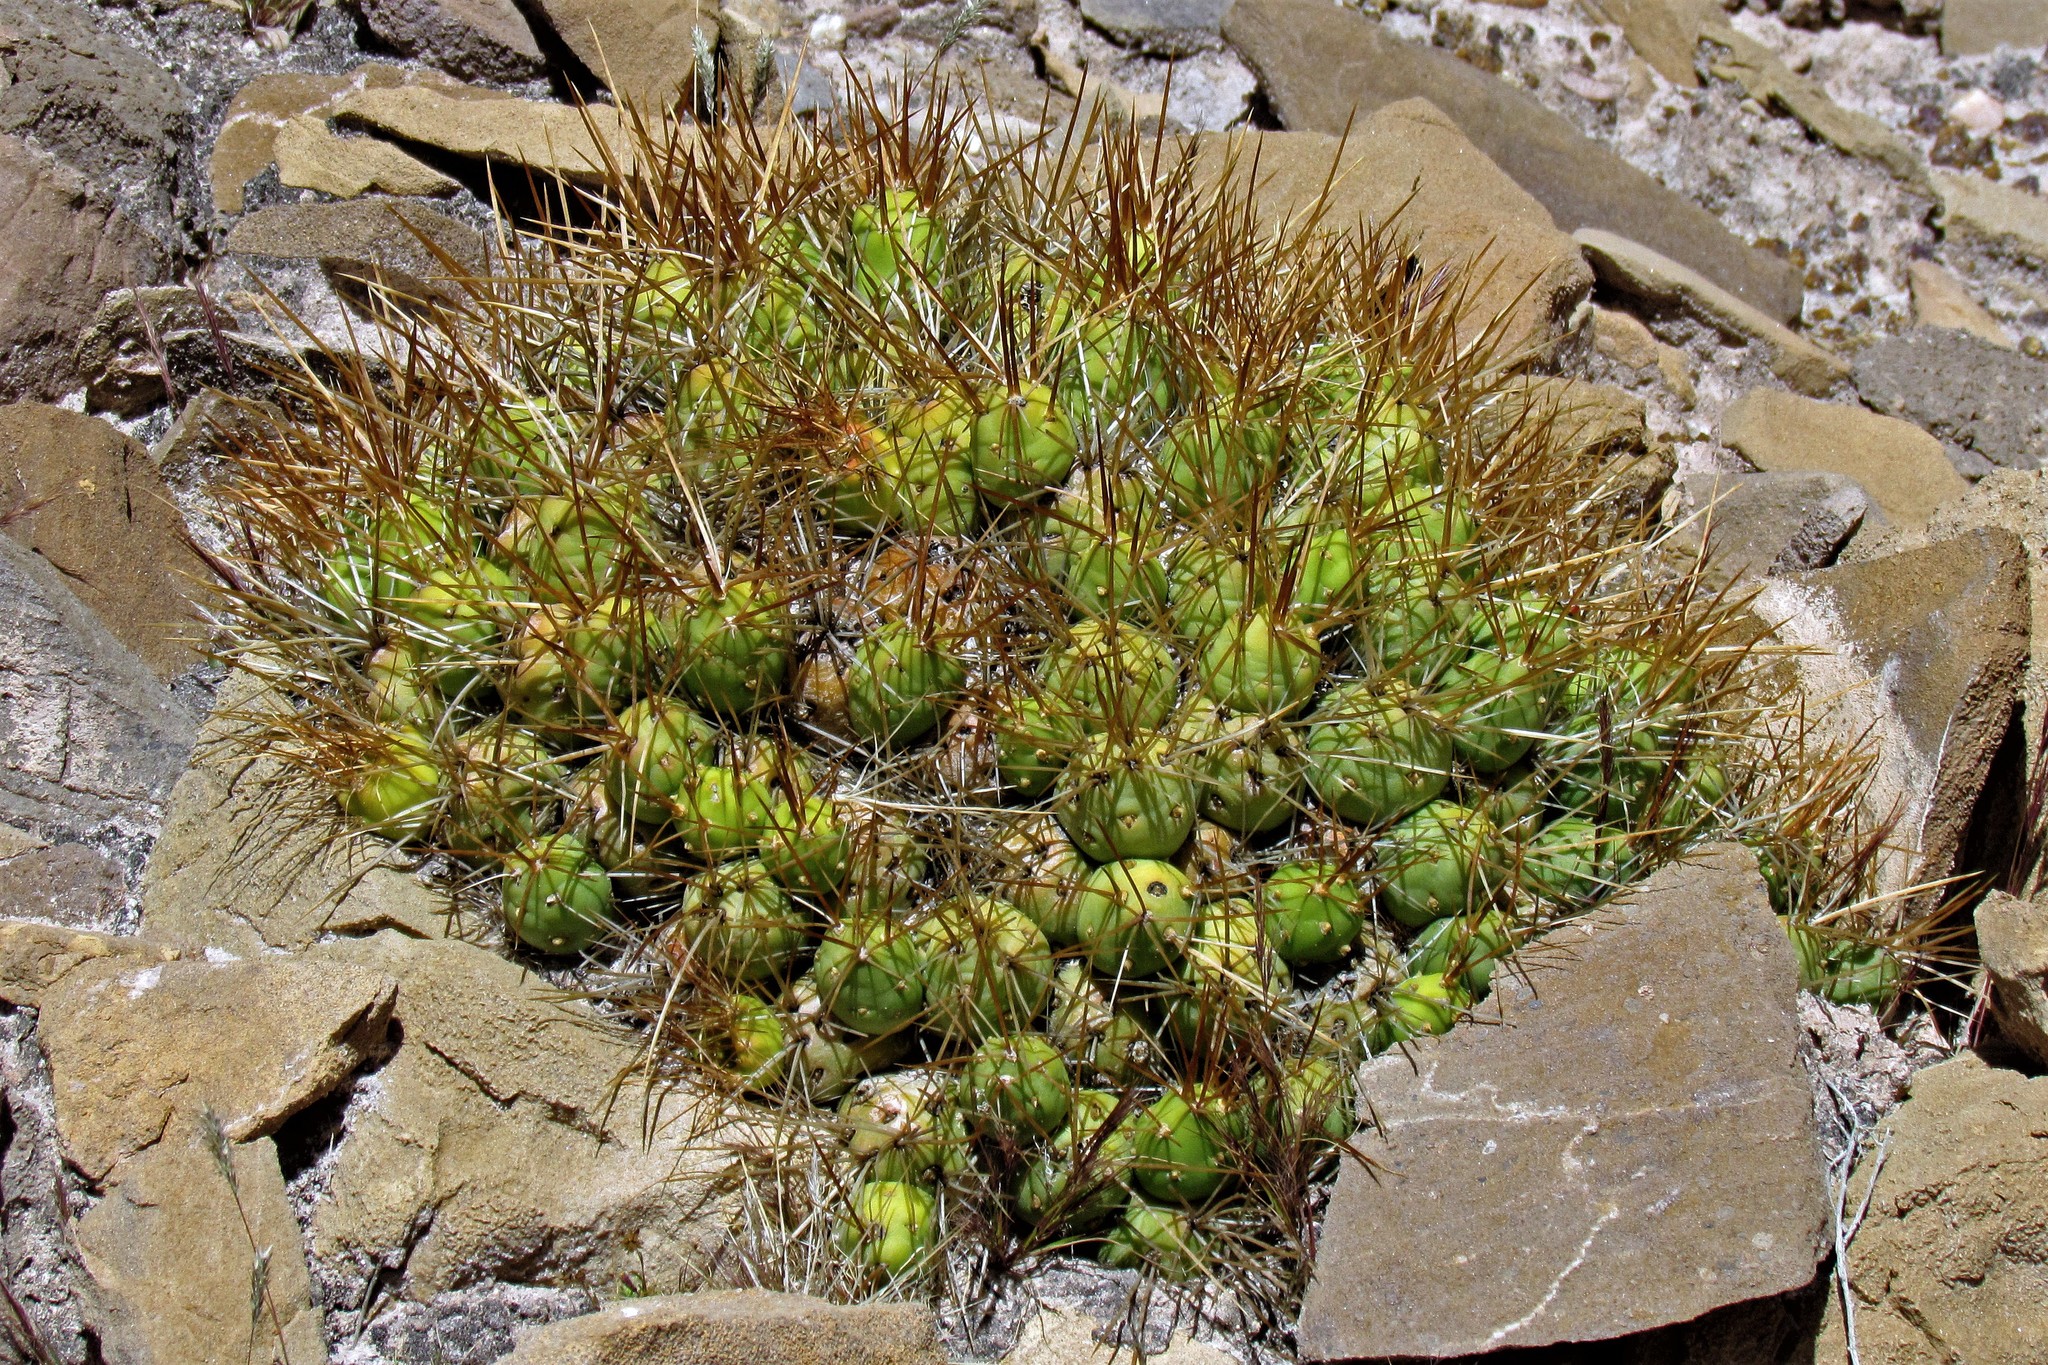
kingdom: Plantae
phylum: Tracheophyta
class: Magnoliopsida
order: Caryophyllales
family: Cactaceae
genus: Cumulopuntia
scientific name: Cumulopuntia boliviana
